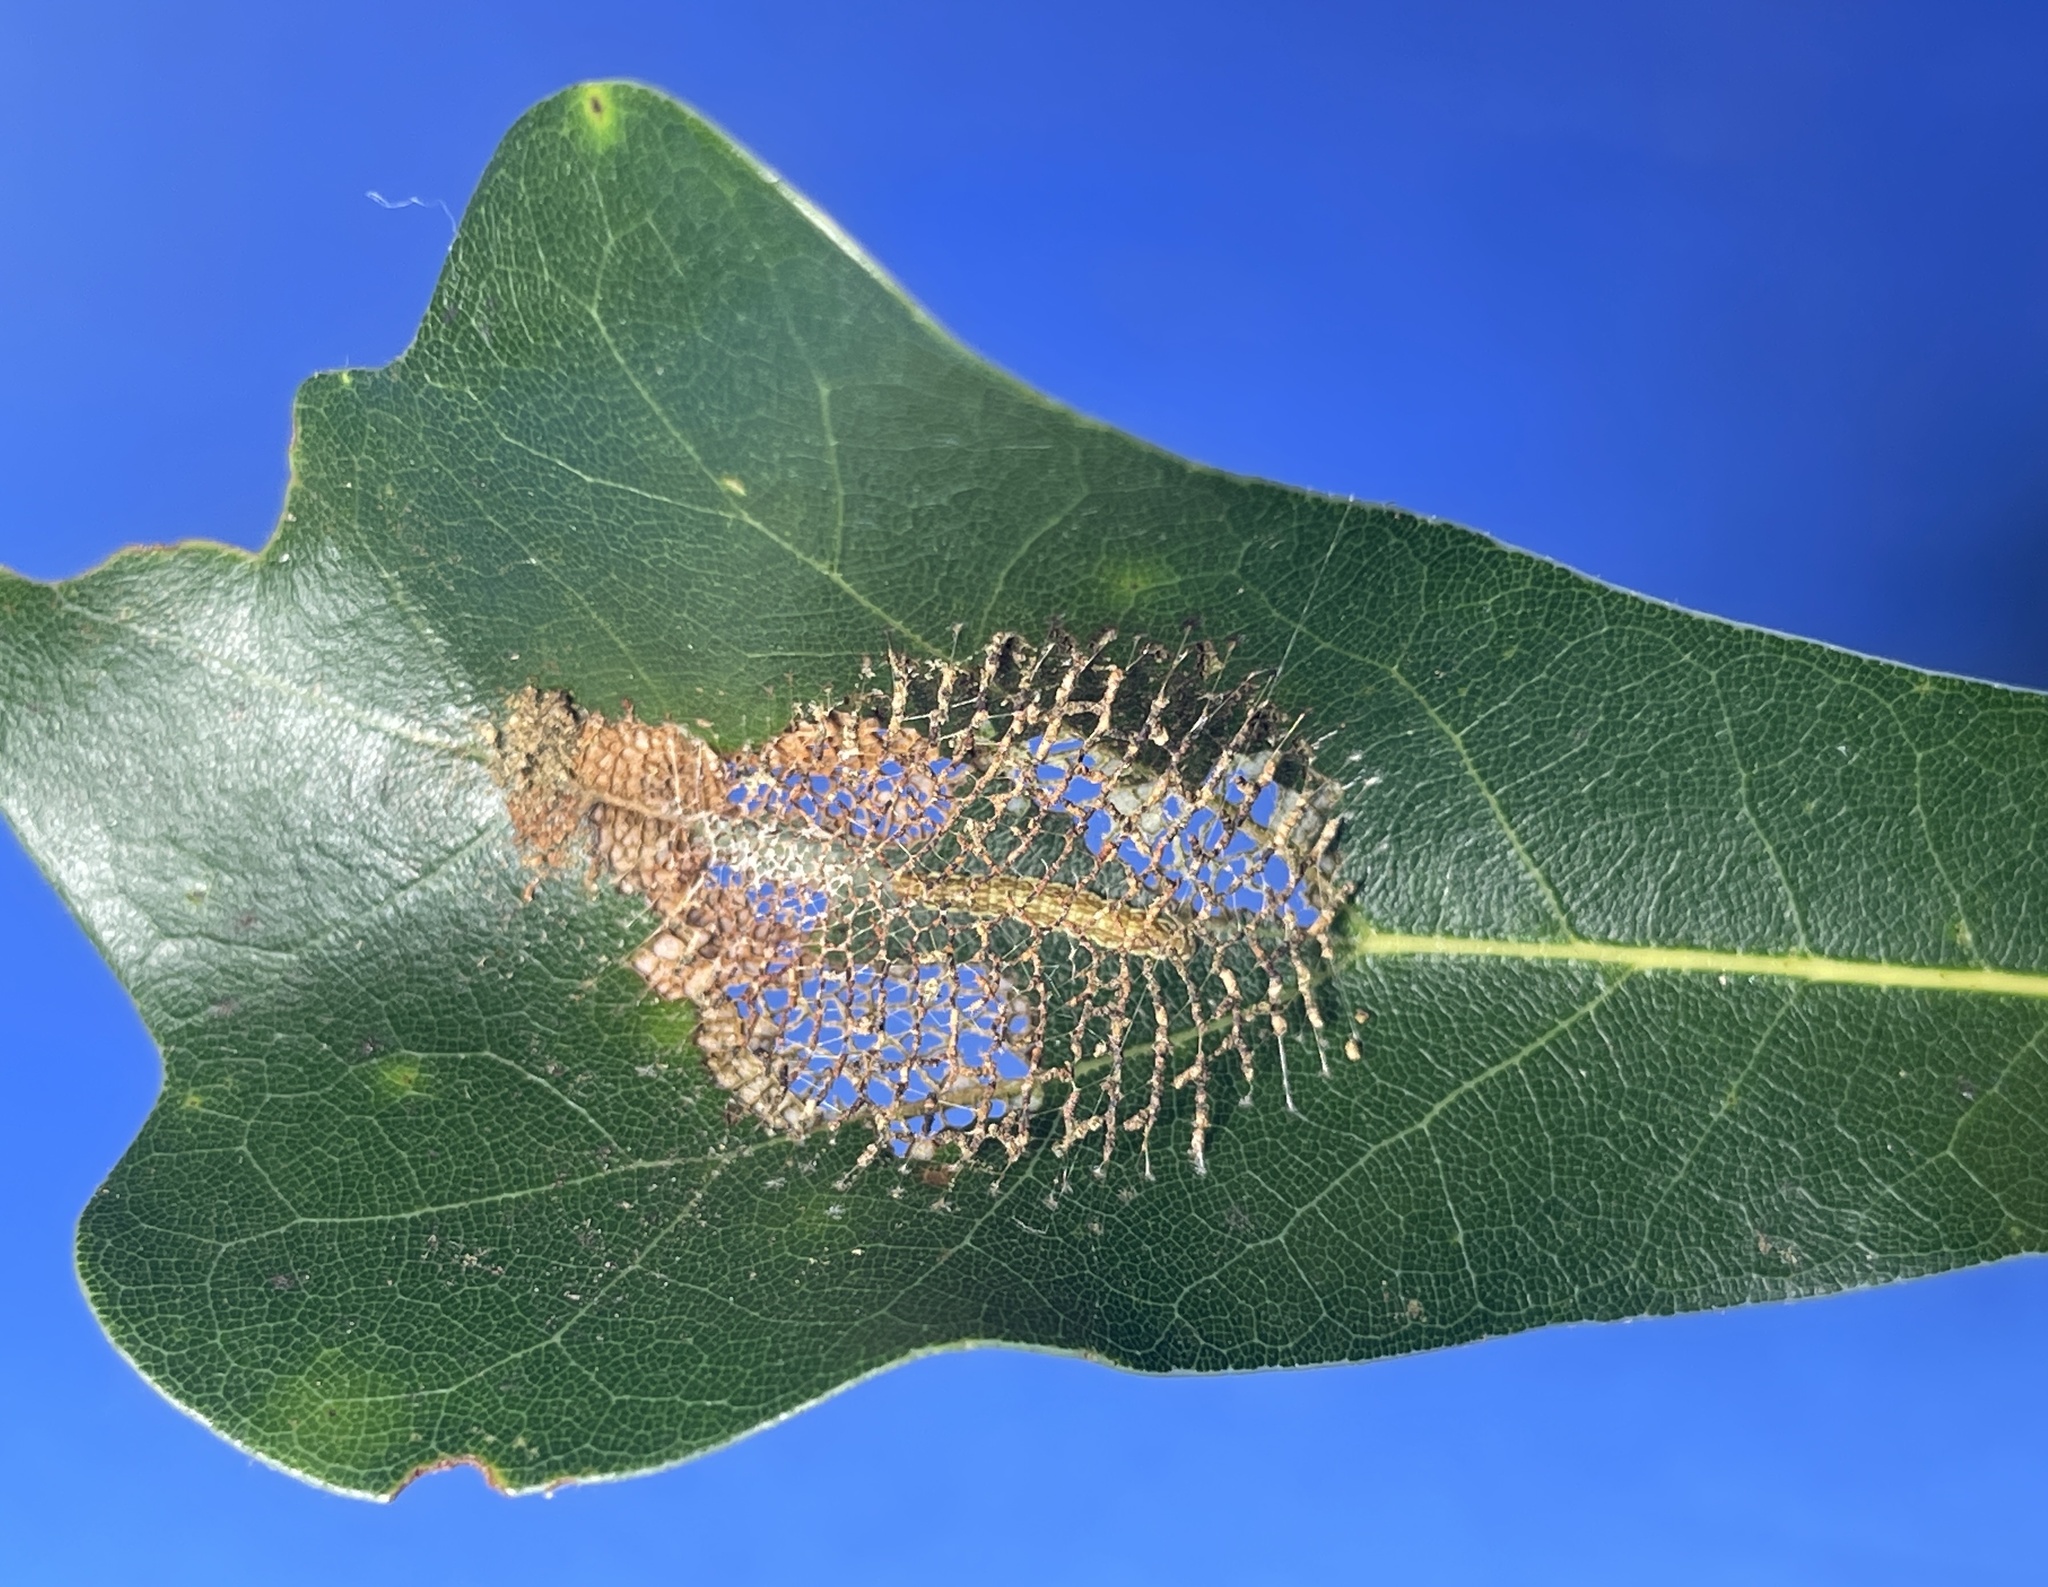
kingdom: Animalia
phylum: Arthropoda
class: Insecta
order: Lepidoptera
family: Mimallonidae
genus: Lacosoma
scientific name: Lacosoma chiridota
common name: Scalloped sack-bearer moth
